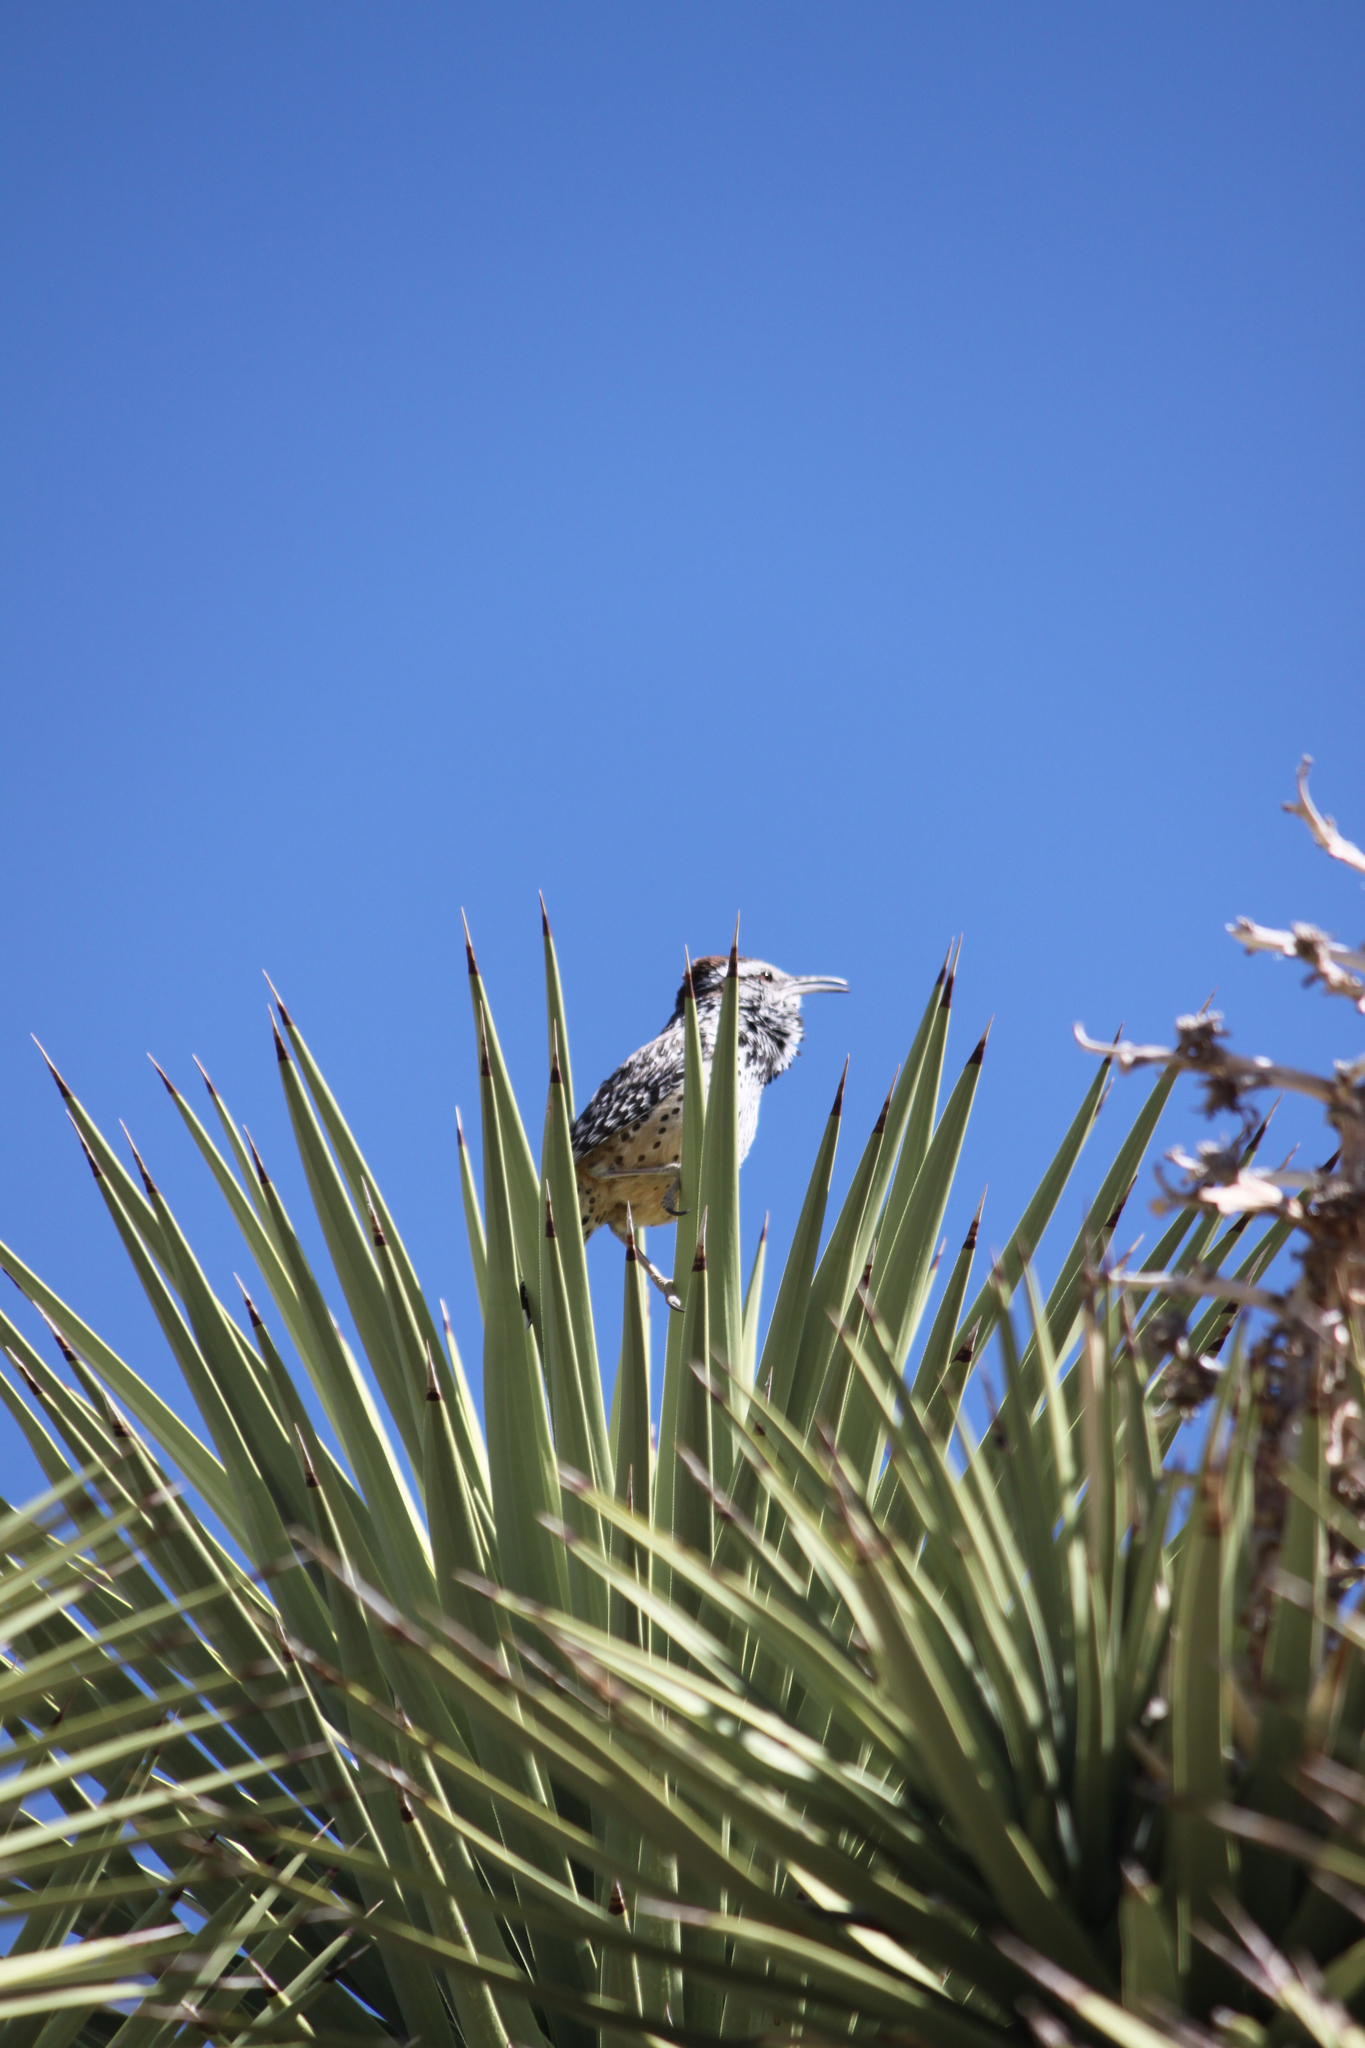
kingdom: Animalia
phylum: Chordata
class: Aves
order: Passeriformes
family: Troglodytidae
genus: Campylorhynchus
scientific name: Campylorhynchus brunneicapillus
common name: Cactus wren
